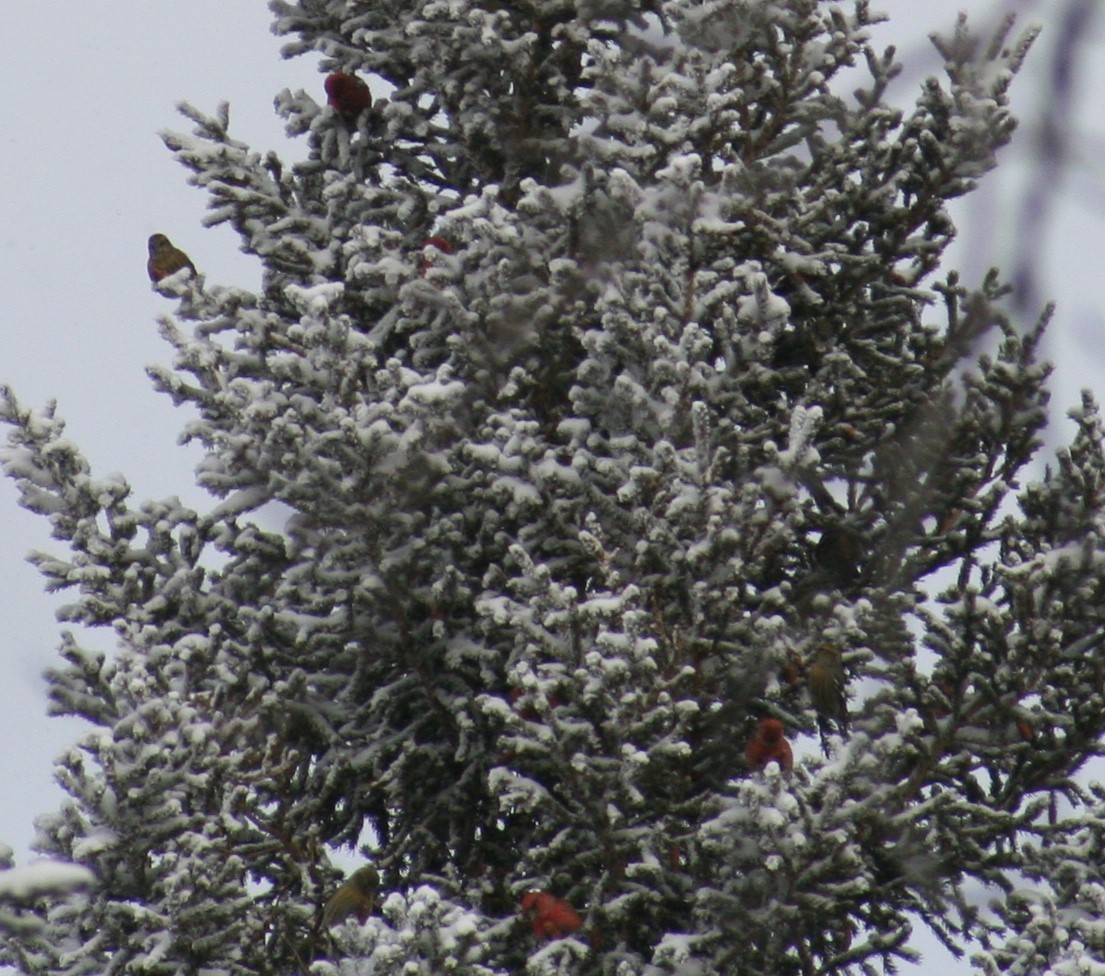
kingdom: Animalia
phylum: Chordata
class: Aves
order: Passeriformes
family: Fringillidae
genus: Loxia
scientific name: Loxia leucoptera
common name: Two-barred crossbill
